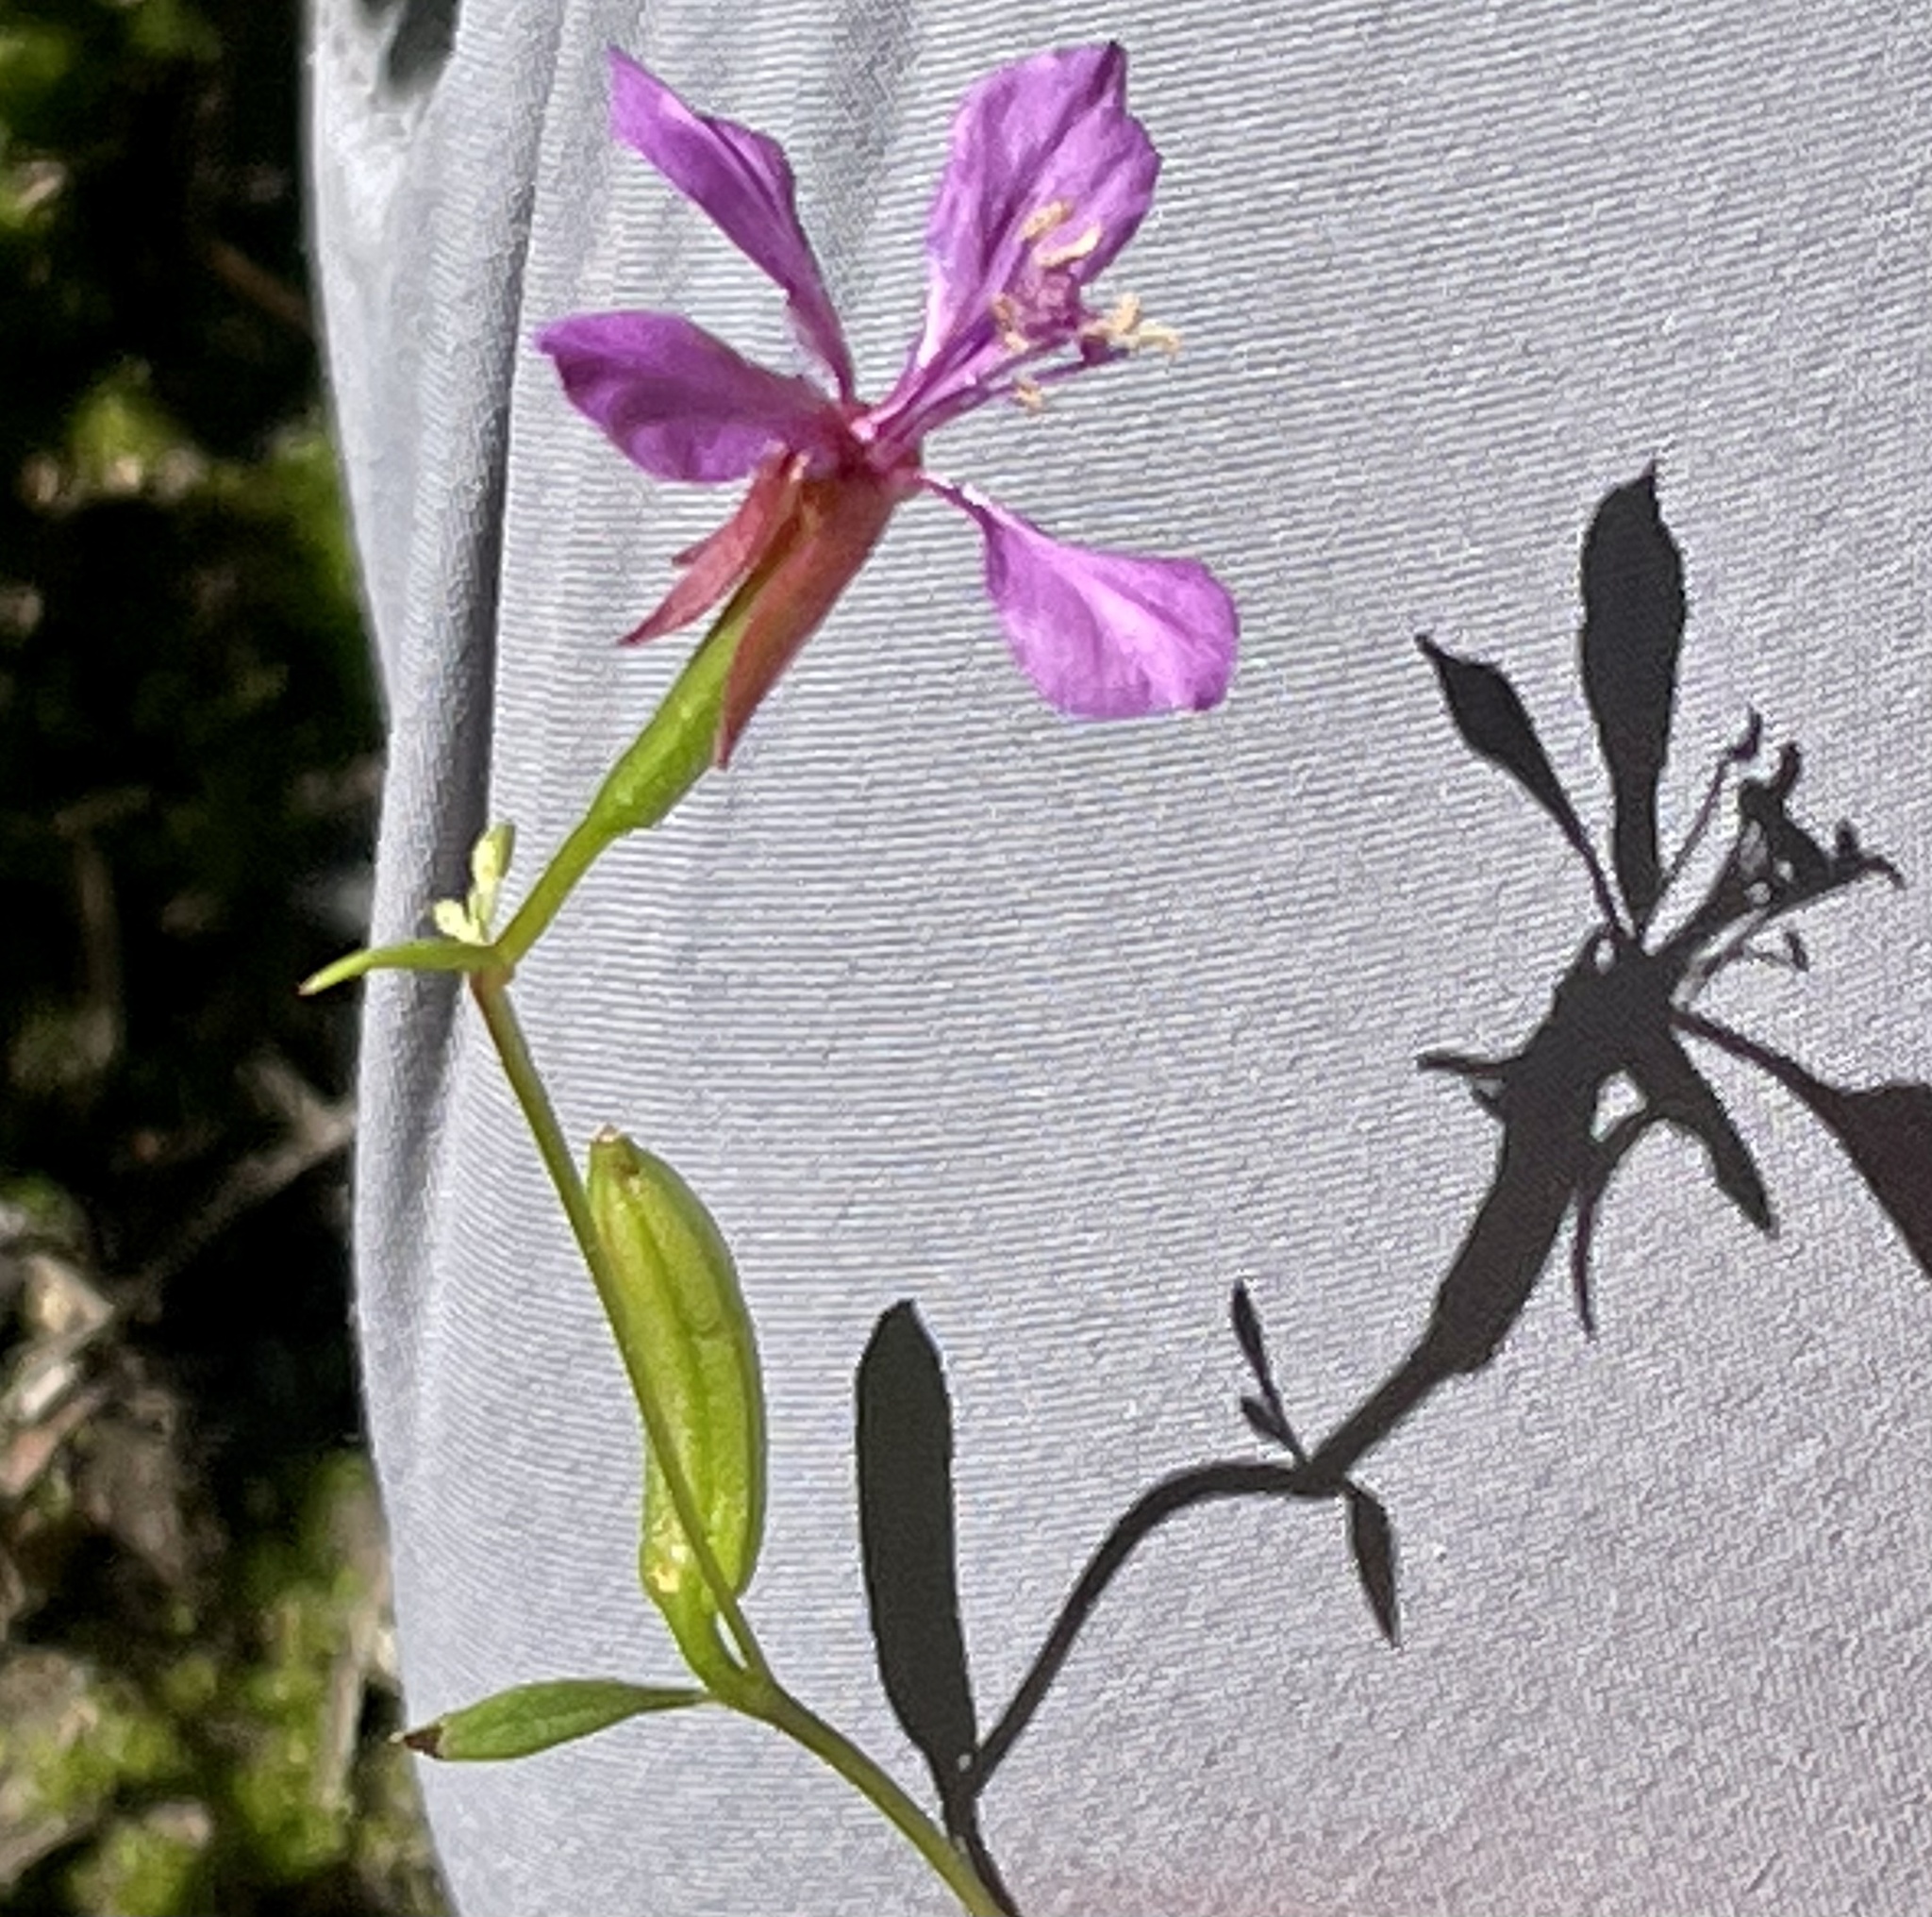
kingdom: Plantae
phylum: Tracheophyta
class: Magnoliopsida
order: Myrtales
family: Onagraceae
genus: Clarkia
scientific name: Clarkia rhomboidea
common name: Broadleaf clarkia
